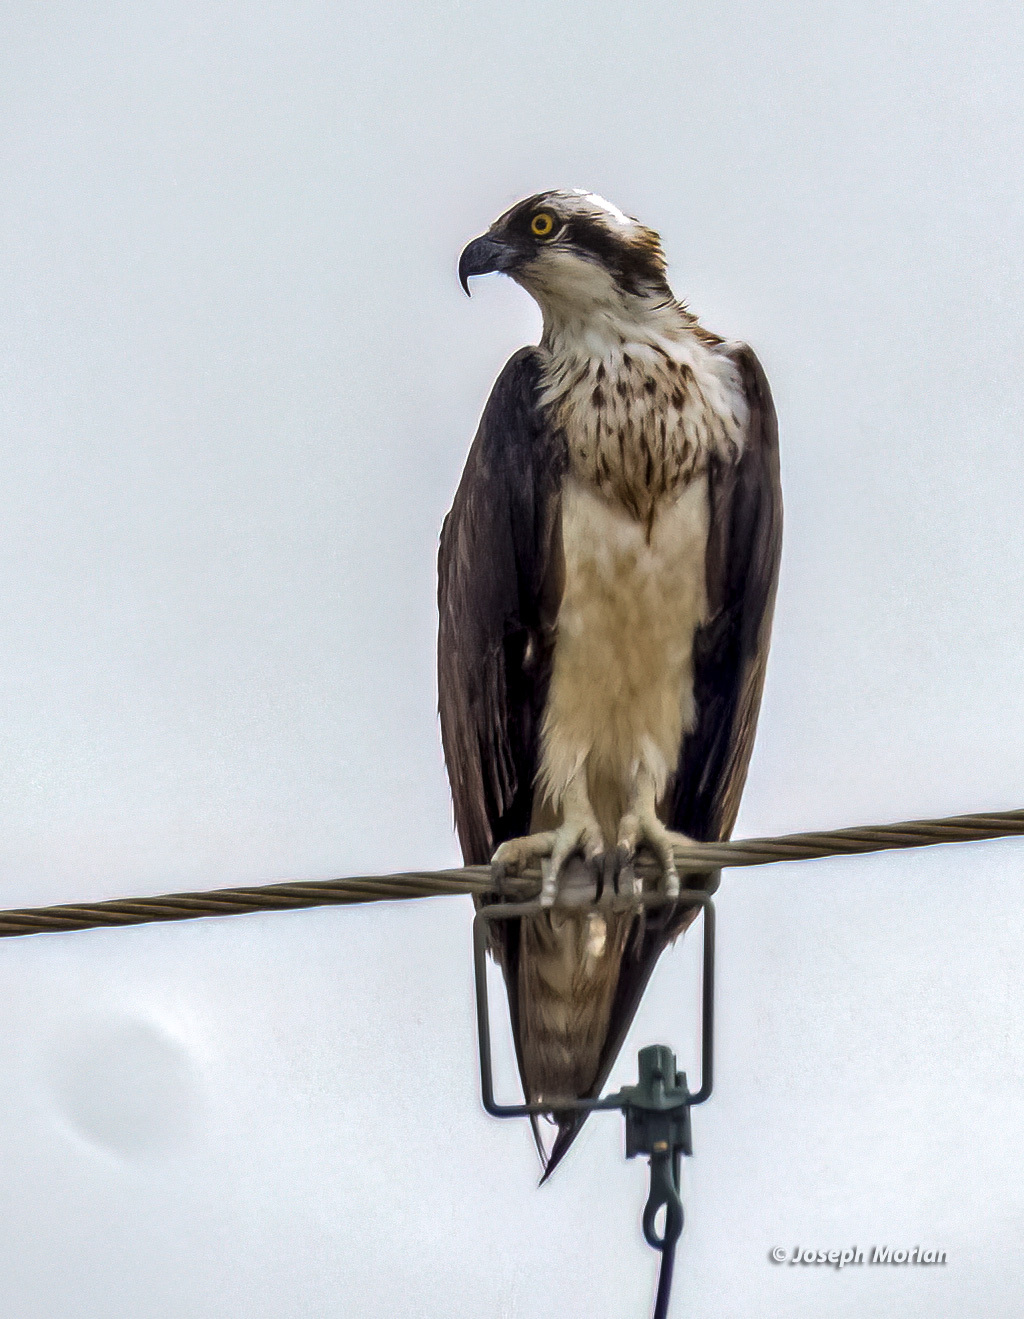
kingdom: Animalia
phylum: Chordata
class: Aves
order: Accipitriformes
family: Pandionidae
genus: Pandion
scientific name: Pandion haliaetus
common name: Osprey
